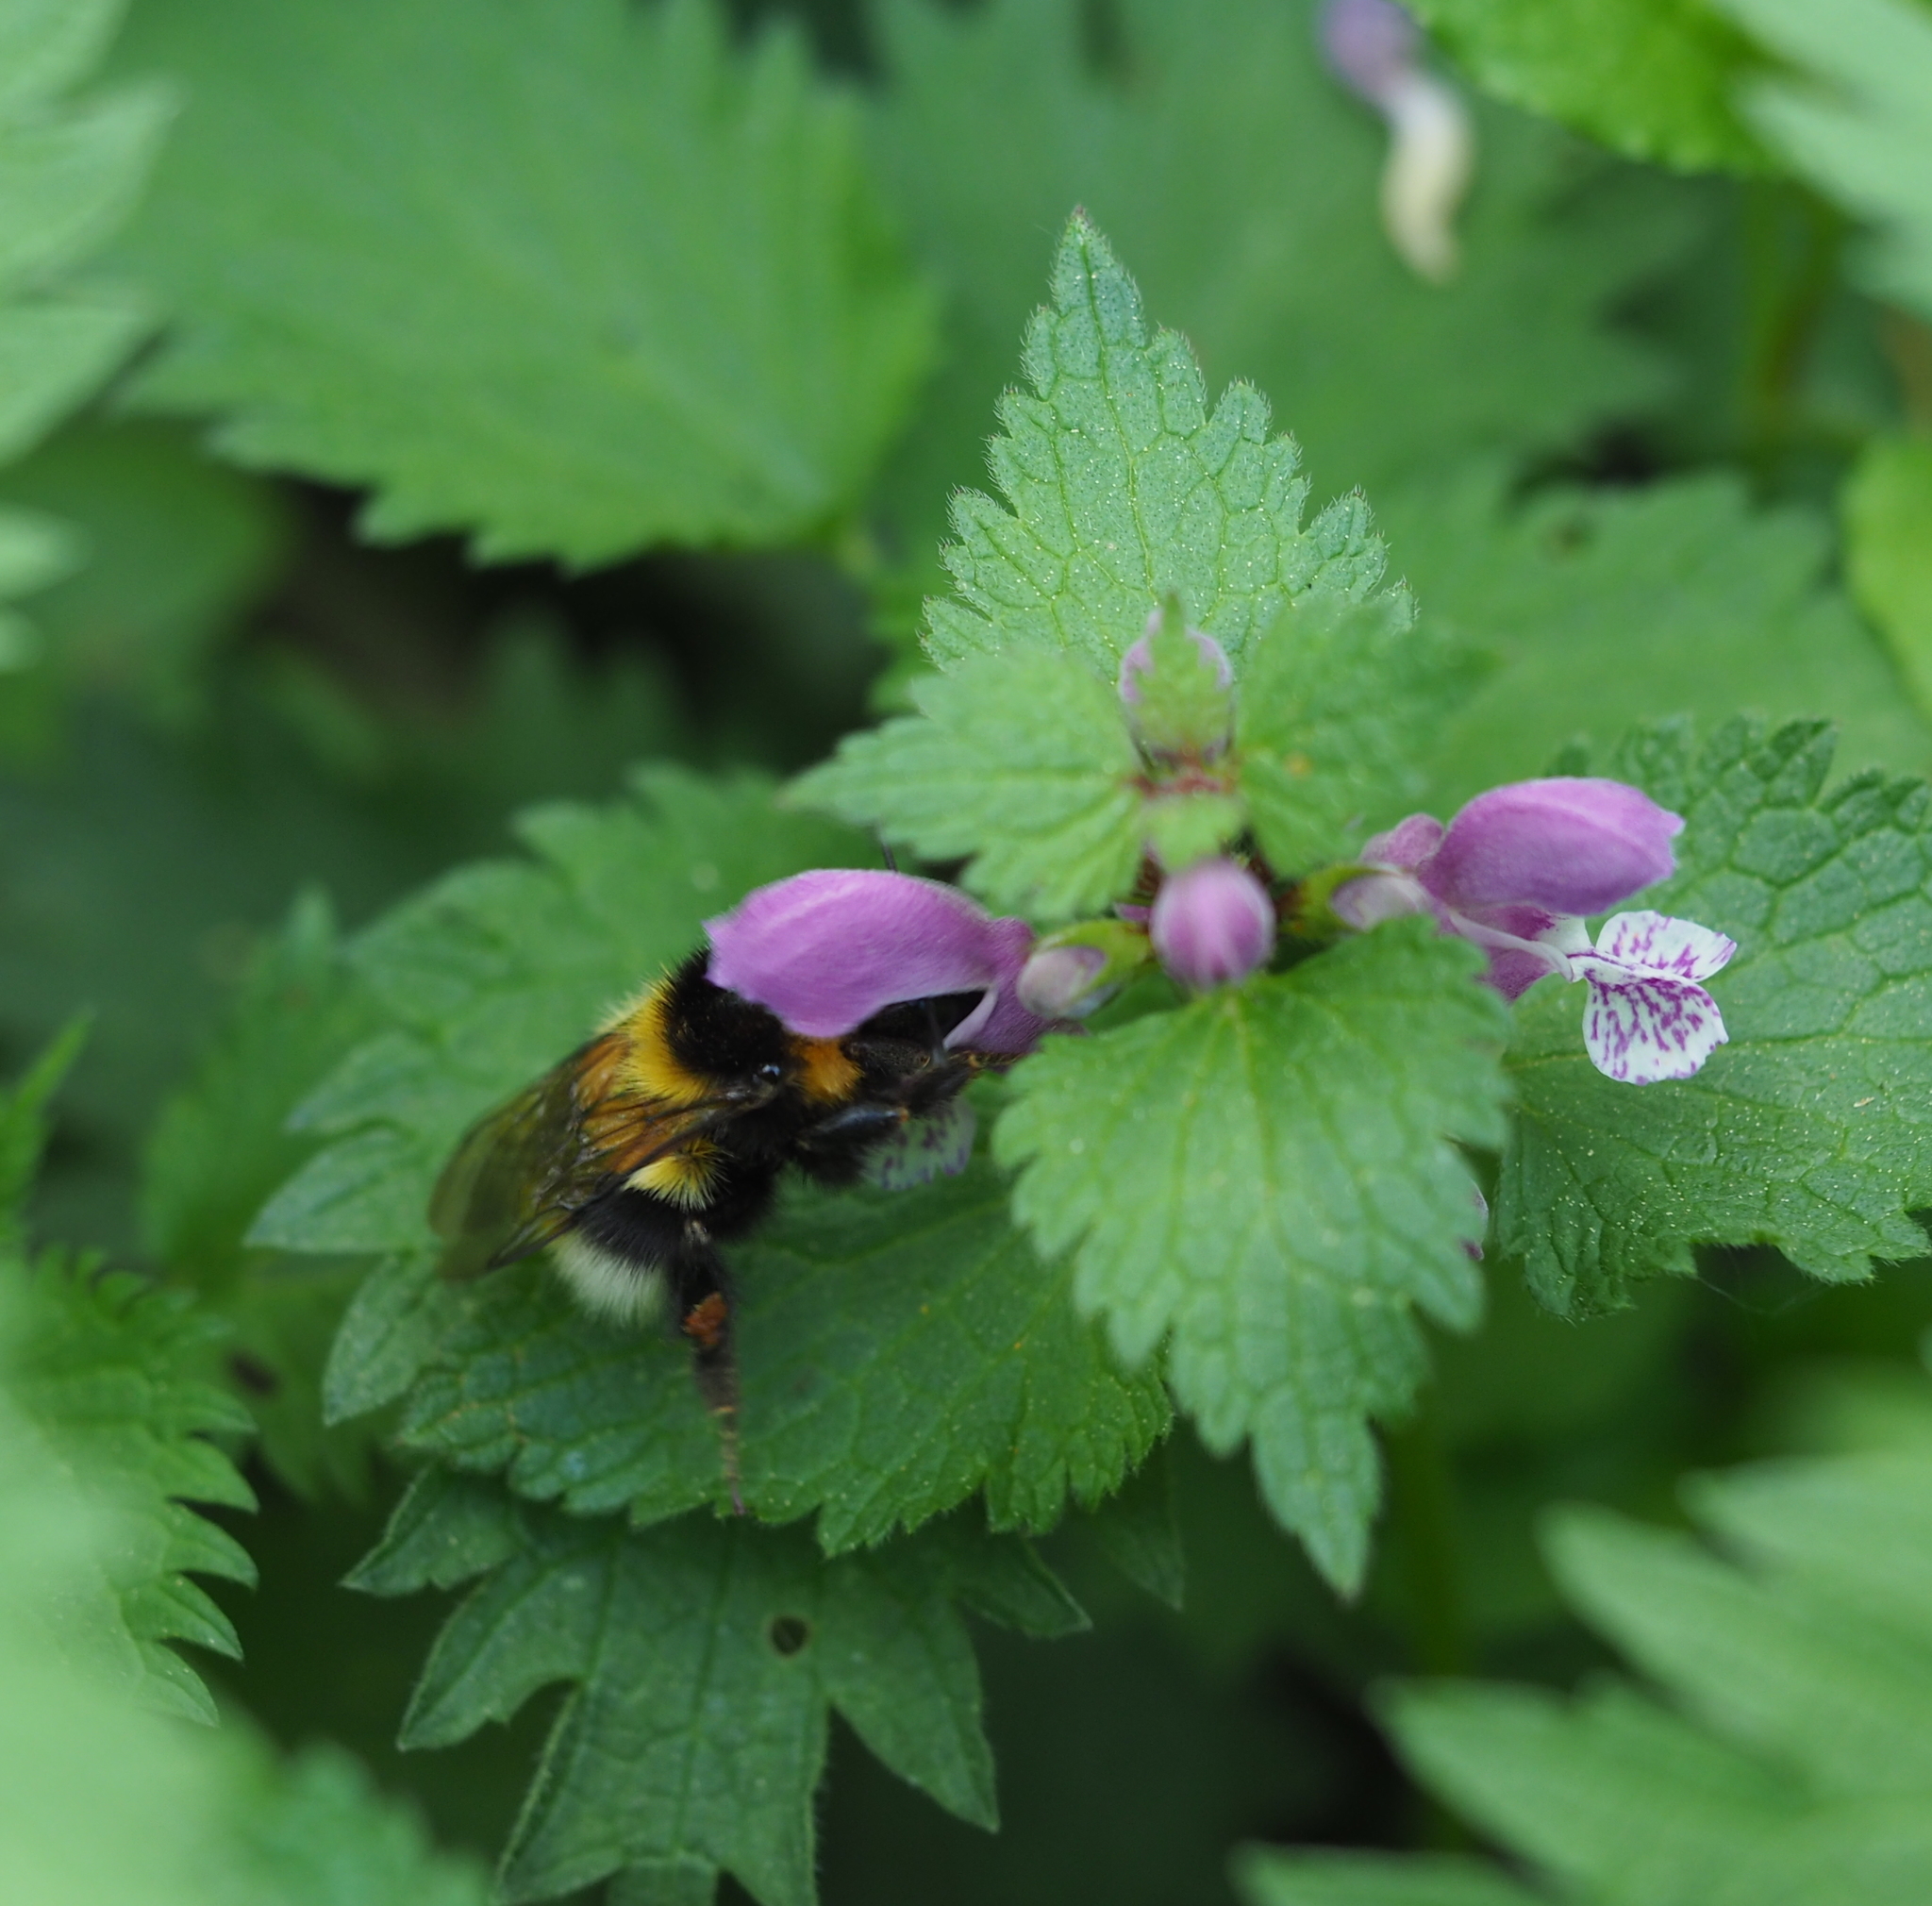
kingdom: Animalia
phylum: Arthropoda
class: Insecta
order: Hymenoptera
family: Apidae
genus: Bombus
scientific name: Bombus hortorum
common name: Garden bumblebee
